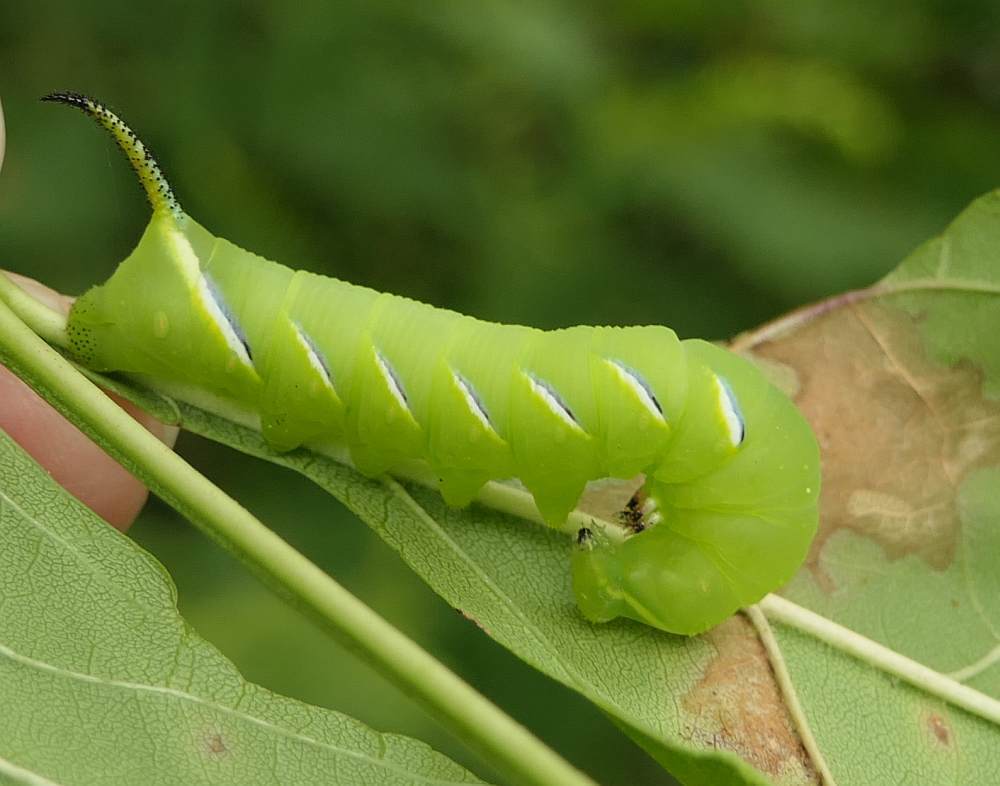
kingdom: Animalia
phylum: Arthropoda
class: Insecta
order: Lepidoptera
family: Sphingidae
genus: Sphinx
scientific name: Sphinx kalmiae
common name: Laurel sphinx
